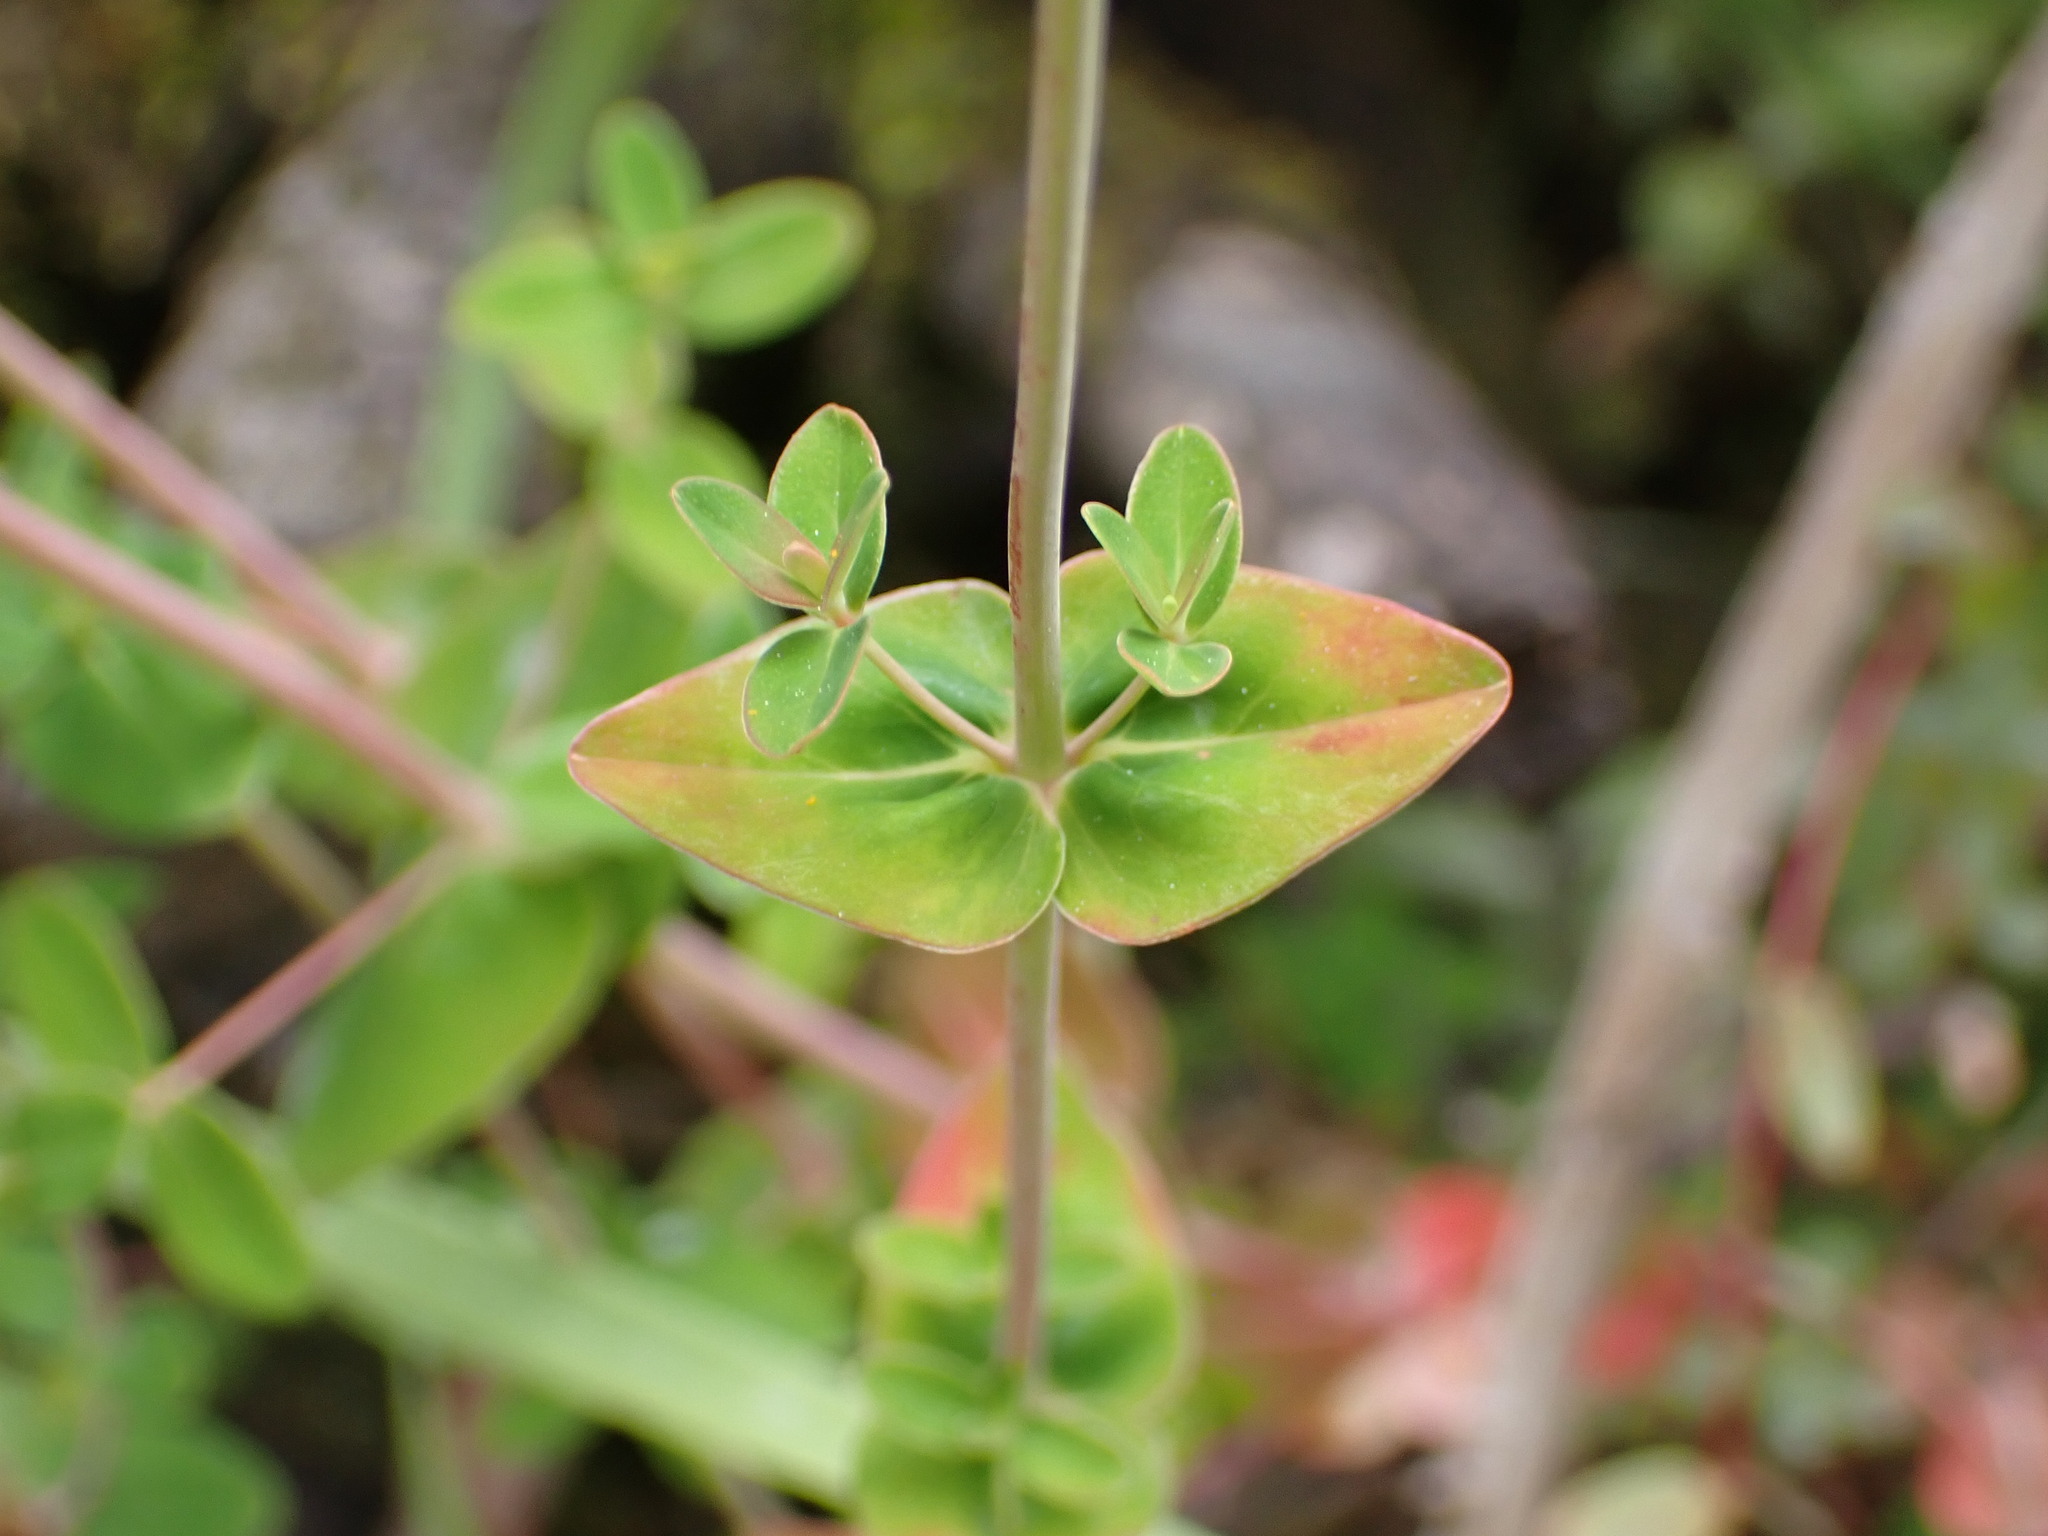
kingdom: Plantae
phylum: Tracheophyta
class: Magnoliopsida
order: Malpighiales
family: Hypericaceae
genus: Hypericum
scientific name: Hypericum pulchrum
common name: Slender st. john's-wort
